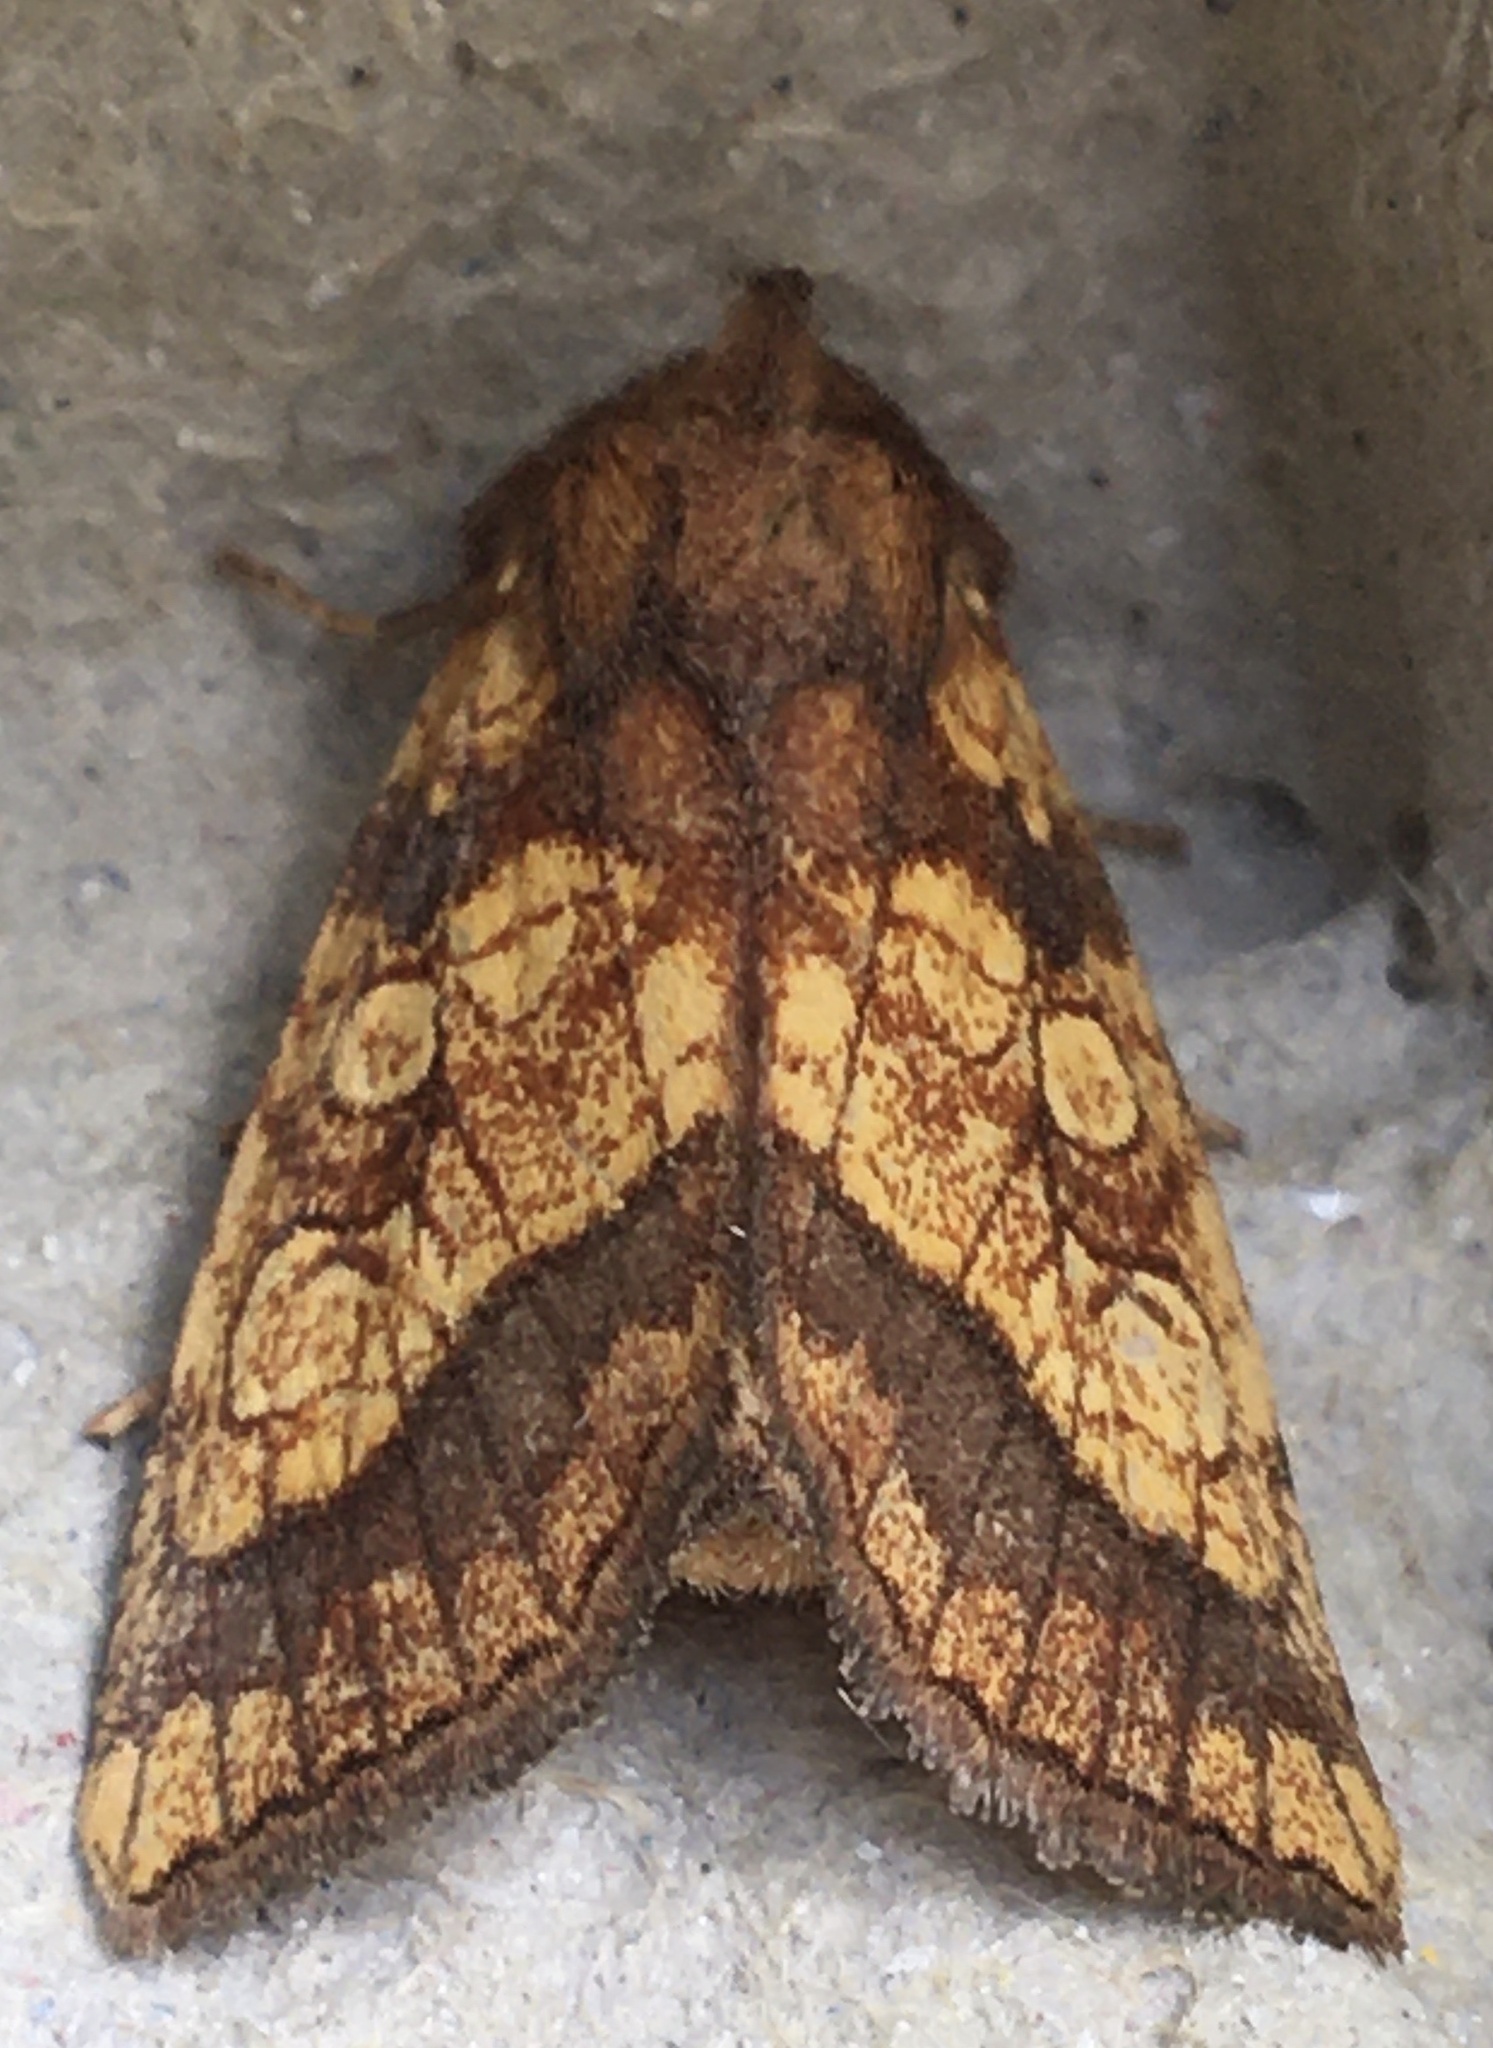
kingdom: Animalia
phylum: Arthropoda
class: Insecta
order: Lepidoptera
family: Noctuidae
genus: Gortyna
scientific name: Gortyna flavago
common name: Frosted orange
